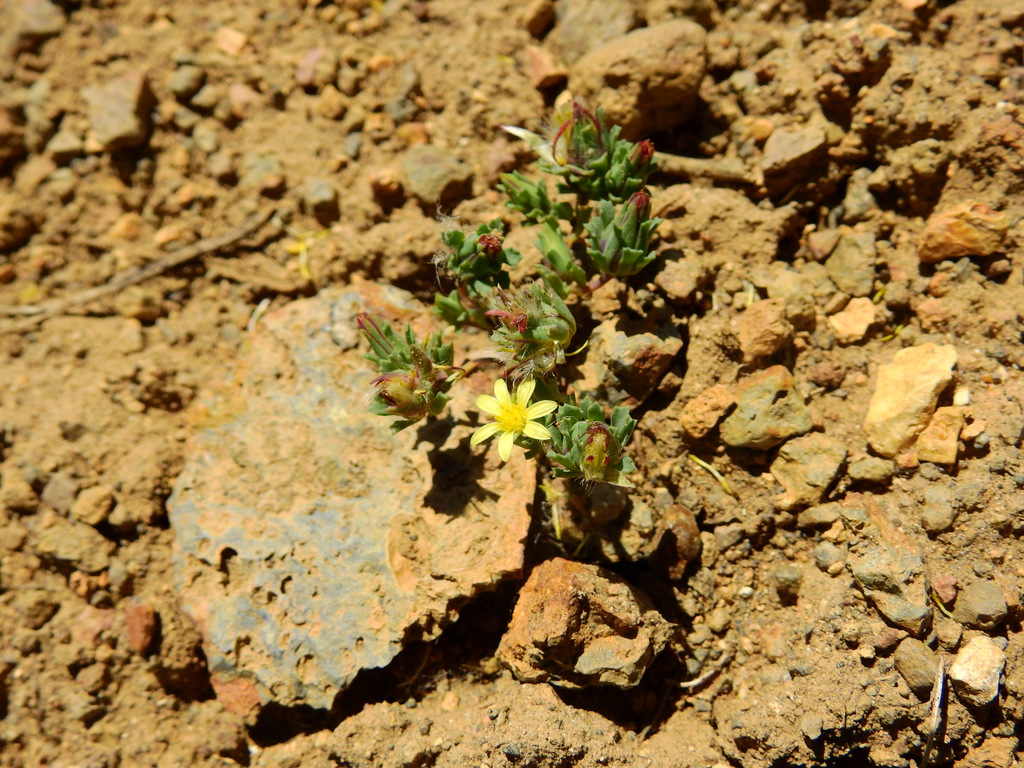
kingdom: Plantae
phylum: Tracheophyta
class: Magnoliopsida
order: Asterales
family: Asteraceae
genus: Chaetanthera
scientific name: Chaetanthera euphrasioides
